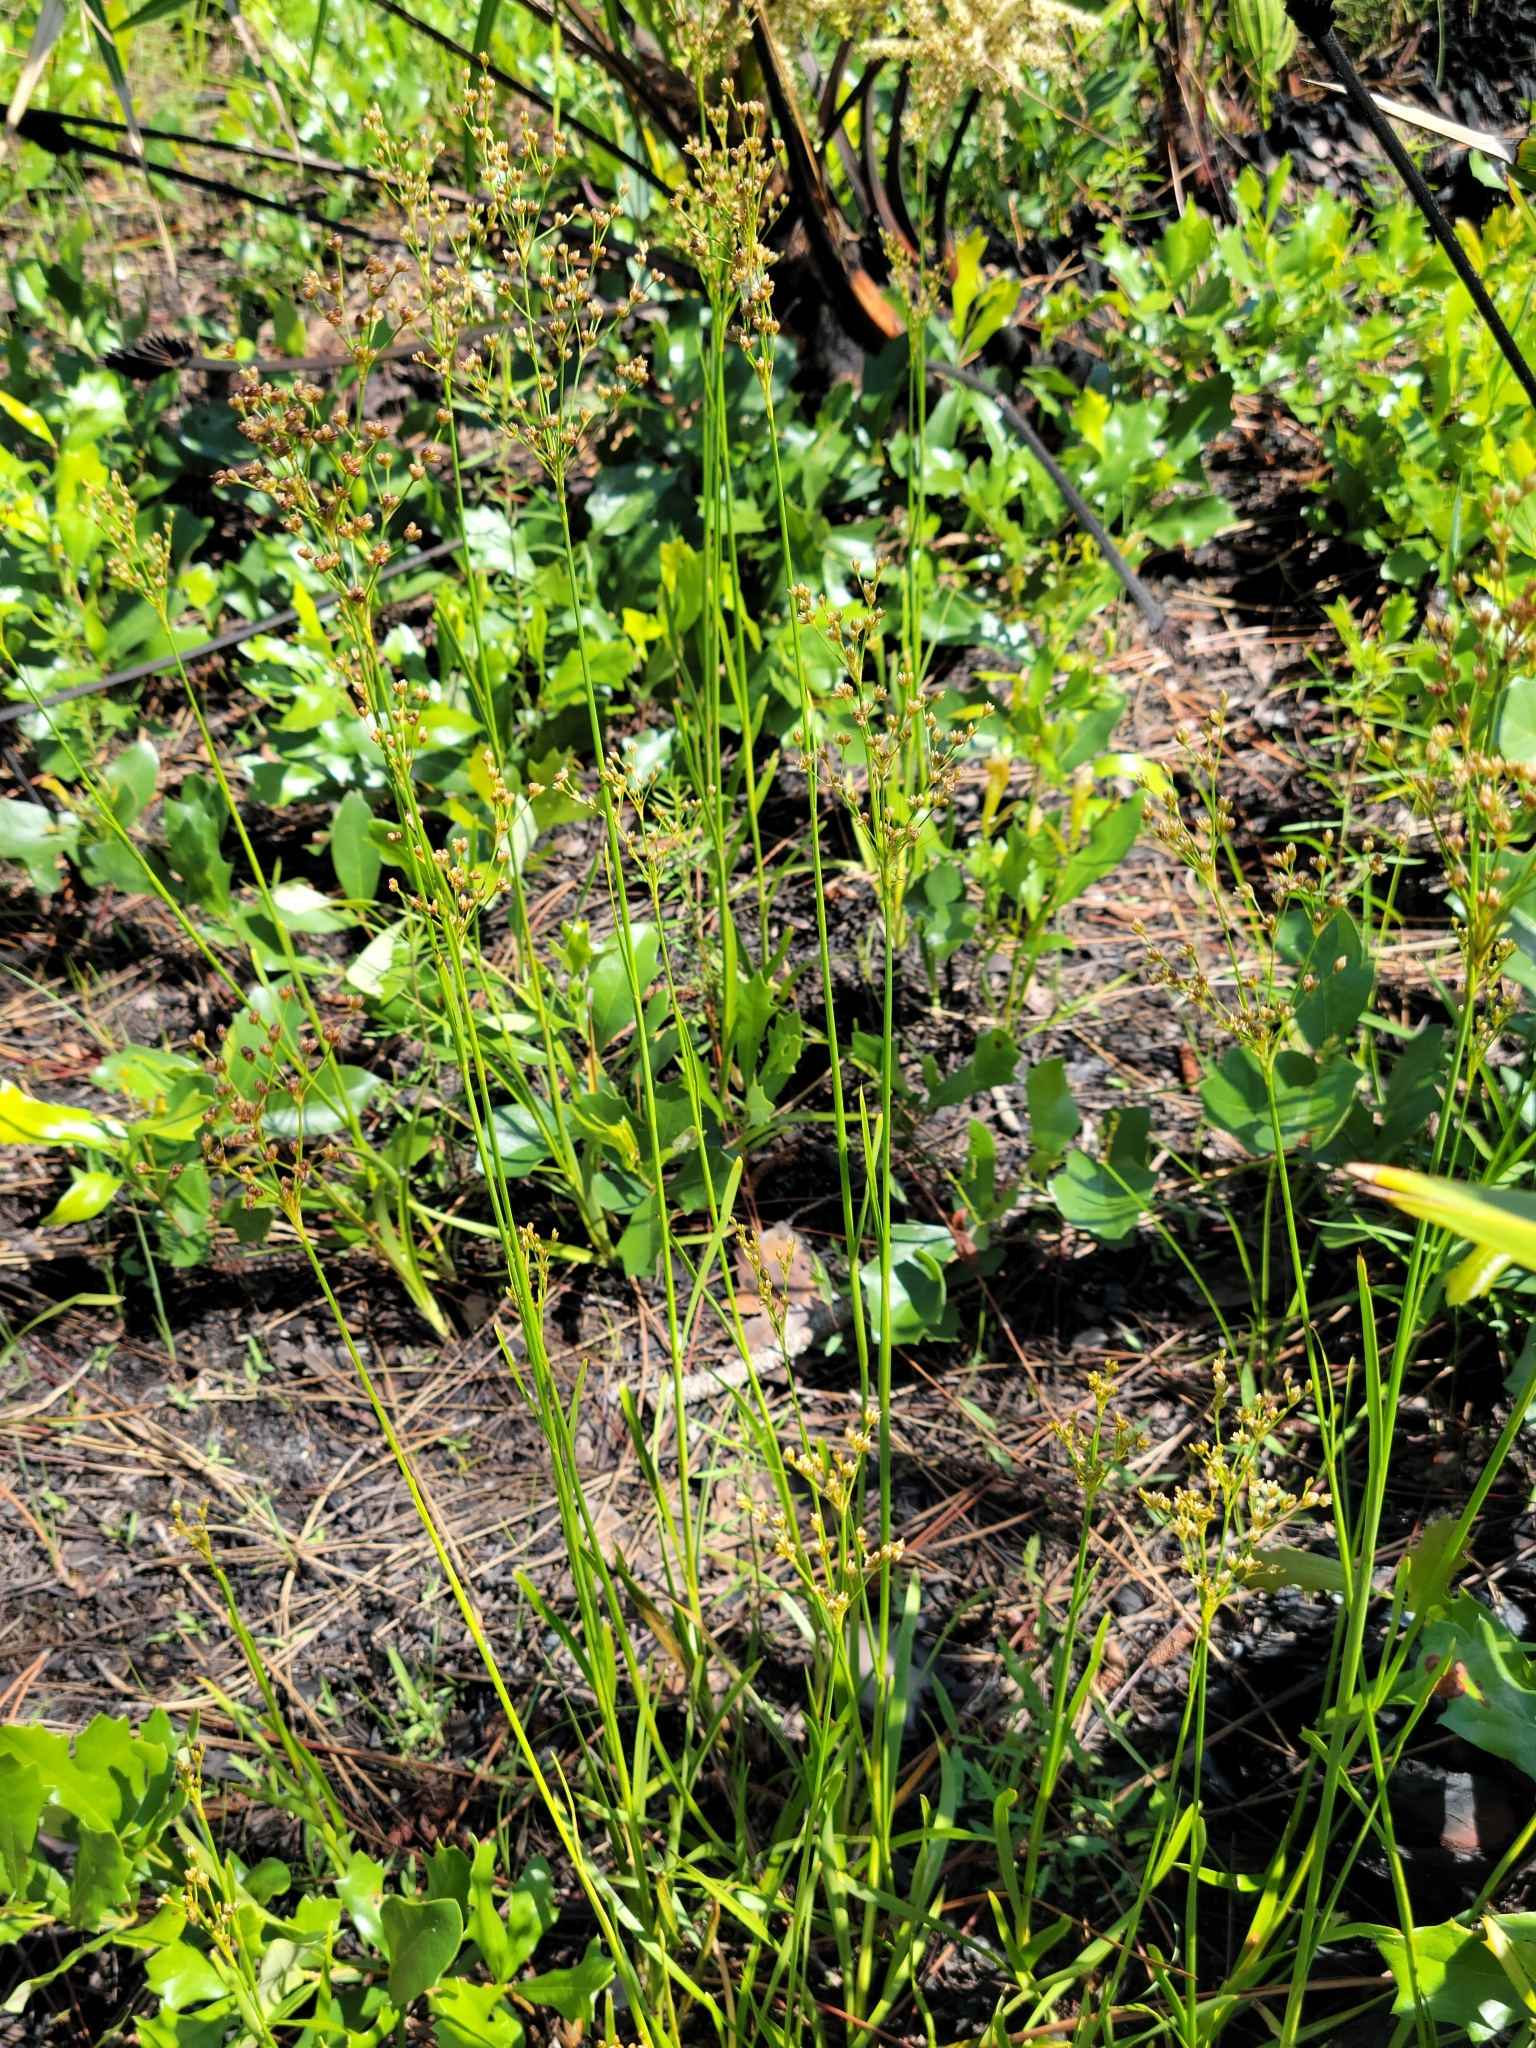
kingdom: Plantae
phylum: Tracheophyta
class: Liliopsida
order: Poales
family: Juncaceae
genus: Juncus
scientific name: Juncus biflorus
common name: Two-flowered rush
